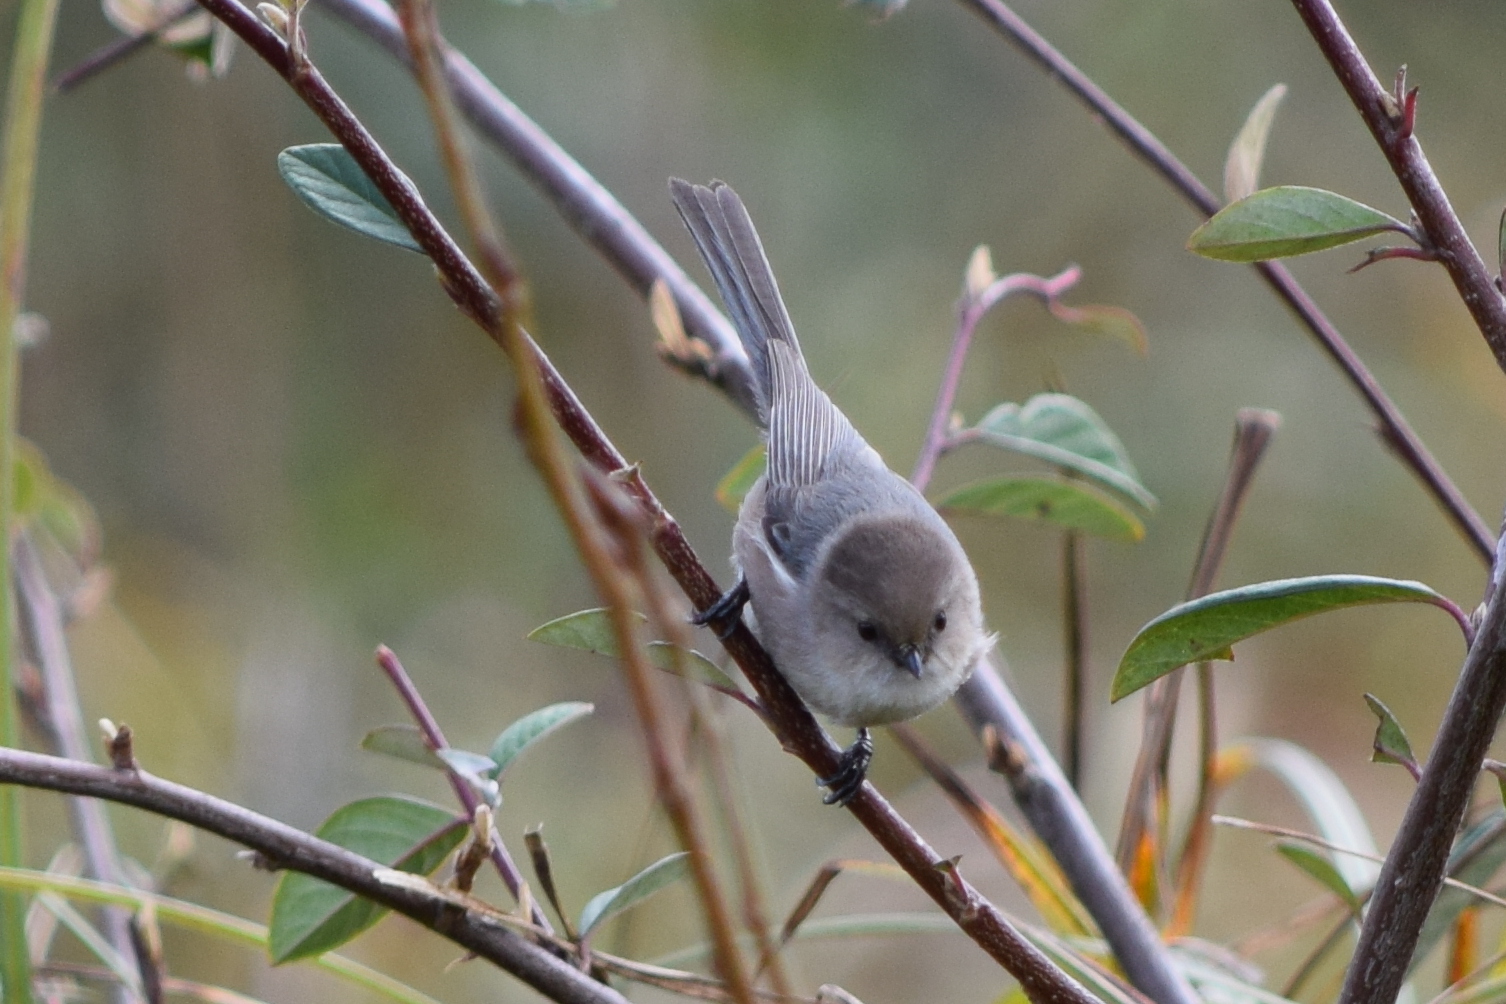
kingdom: Animalia
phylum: Chordata
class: Aves
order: Passeriformes
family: Aegithalidae
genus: Psaltriparus
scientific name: Psaltriparus minimus
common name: American bushtit
